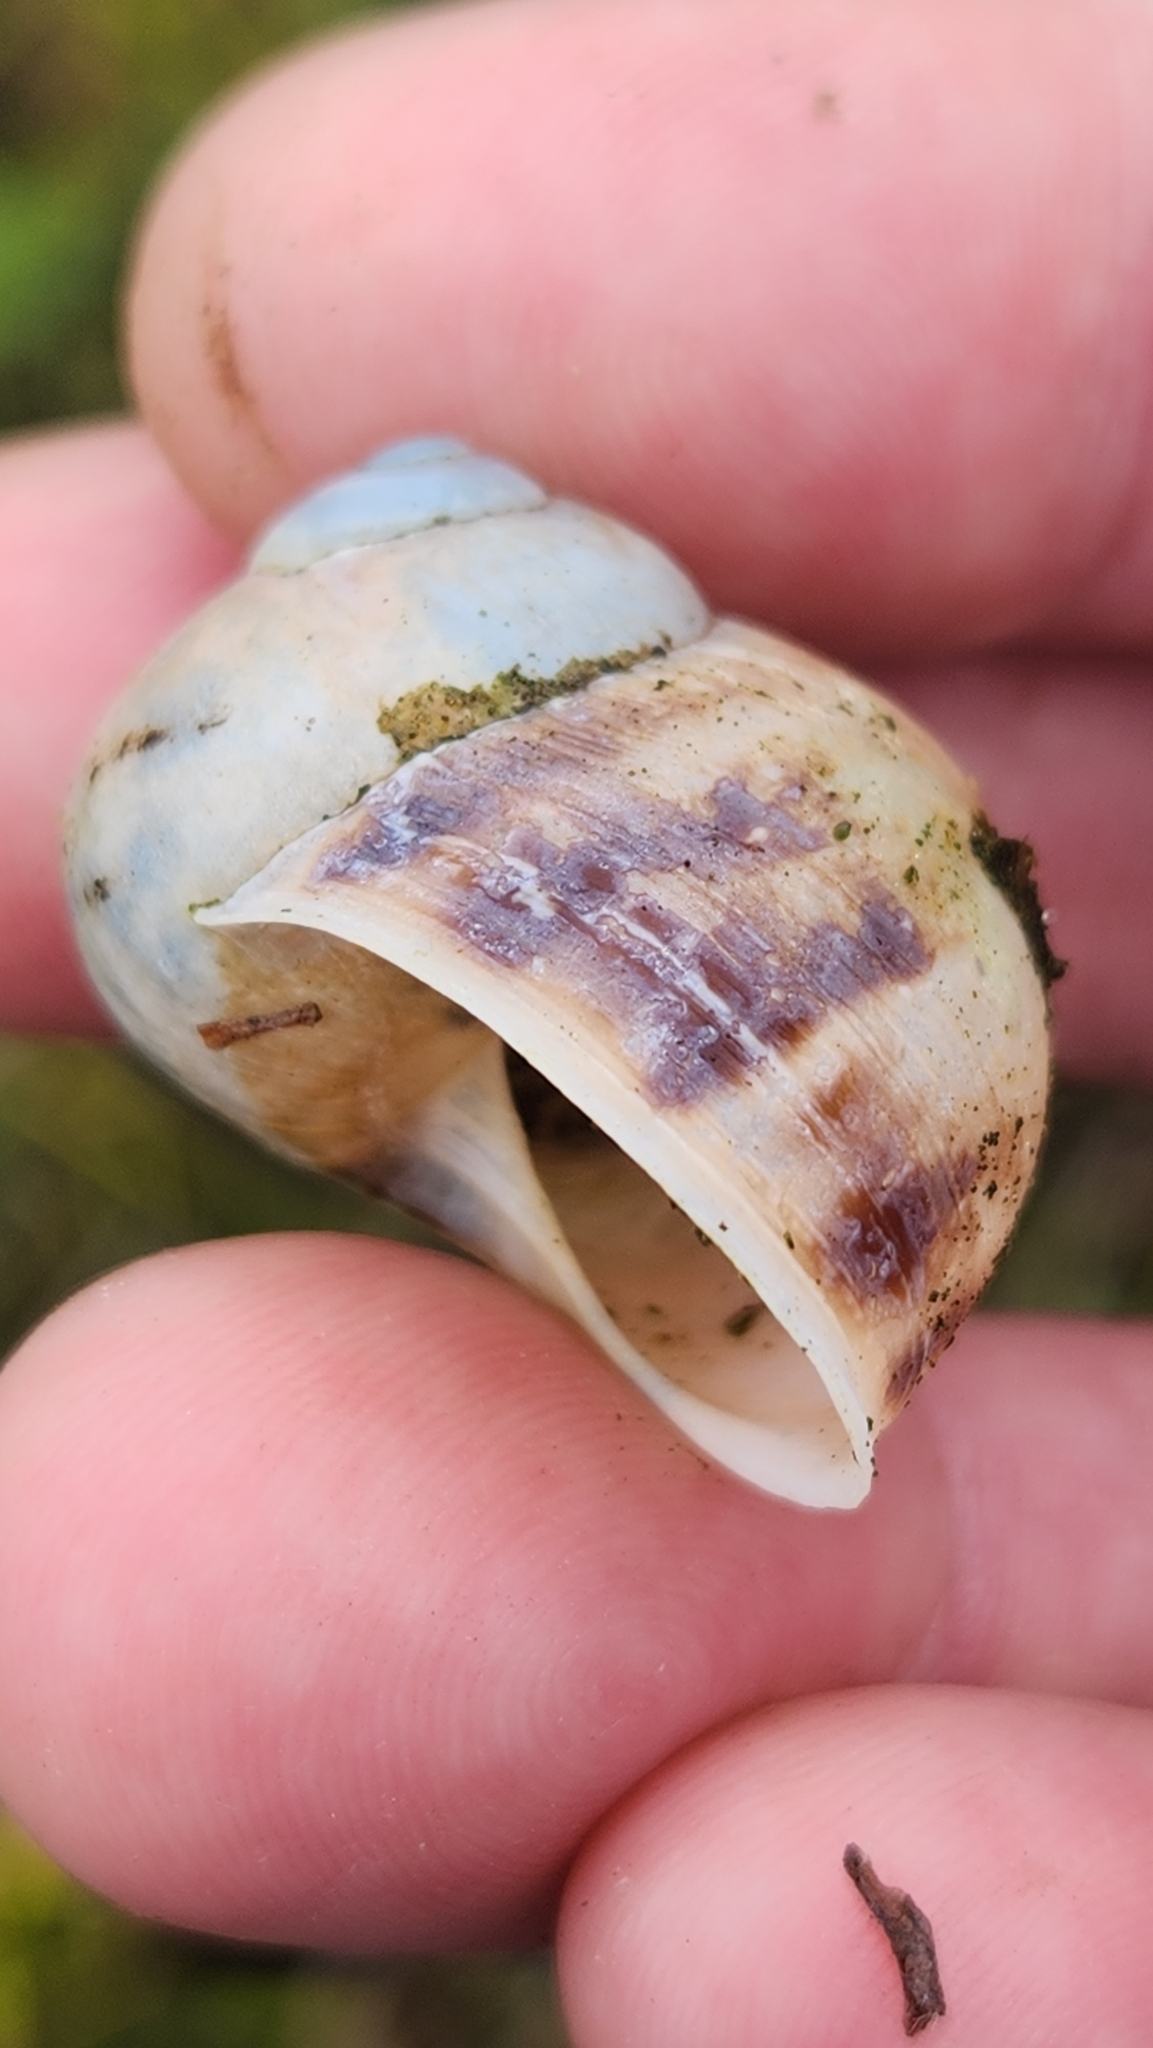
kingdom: Animalia
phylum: Mollusca
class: Gastropoda
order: Stylommatophora
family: Helicidae
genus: Cornu
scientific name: Cornu aspersum
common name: Brown garden snail
